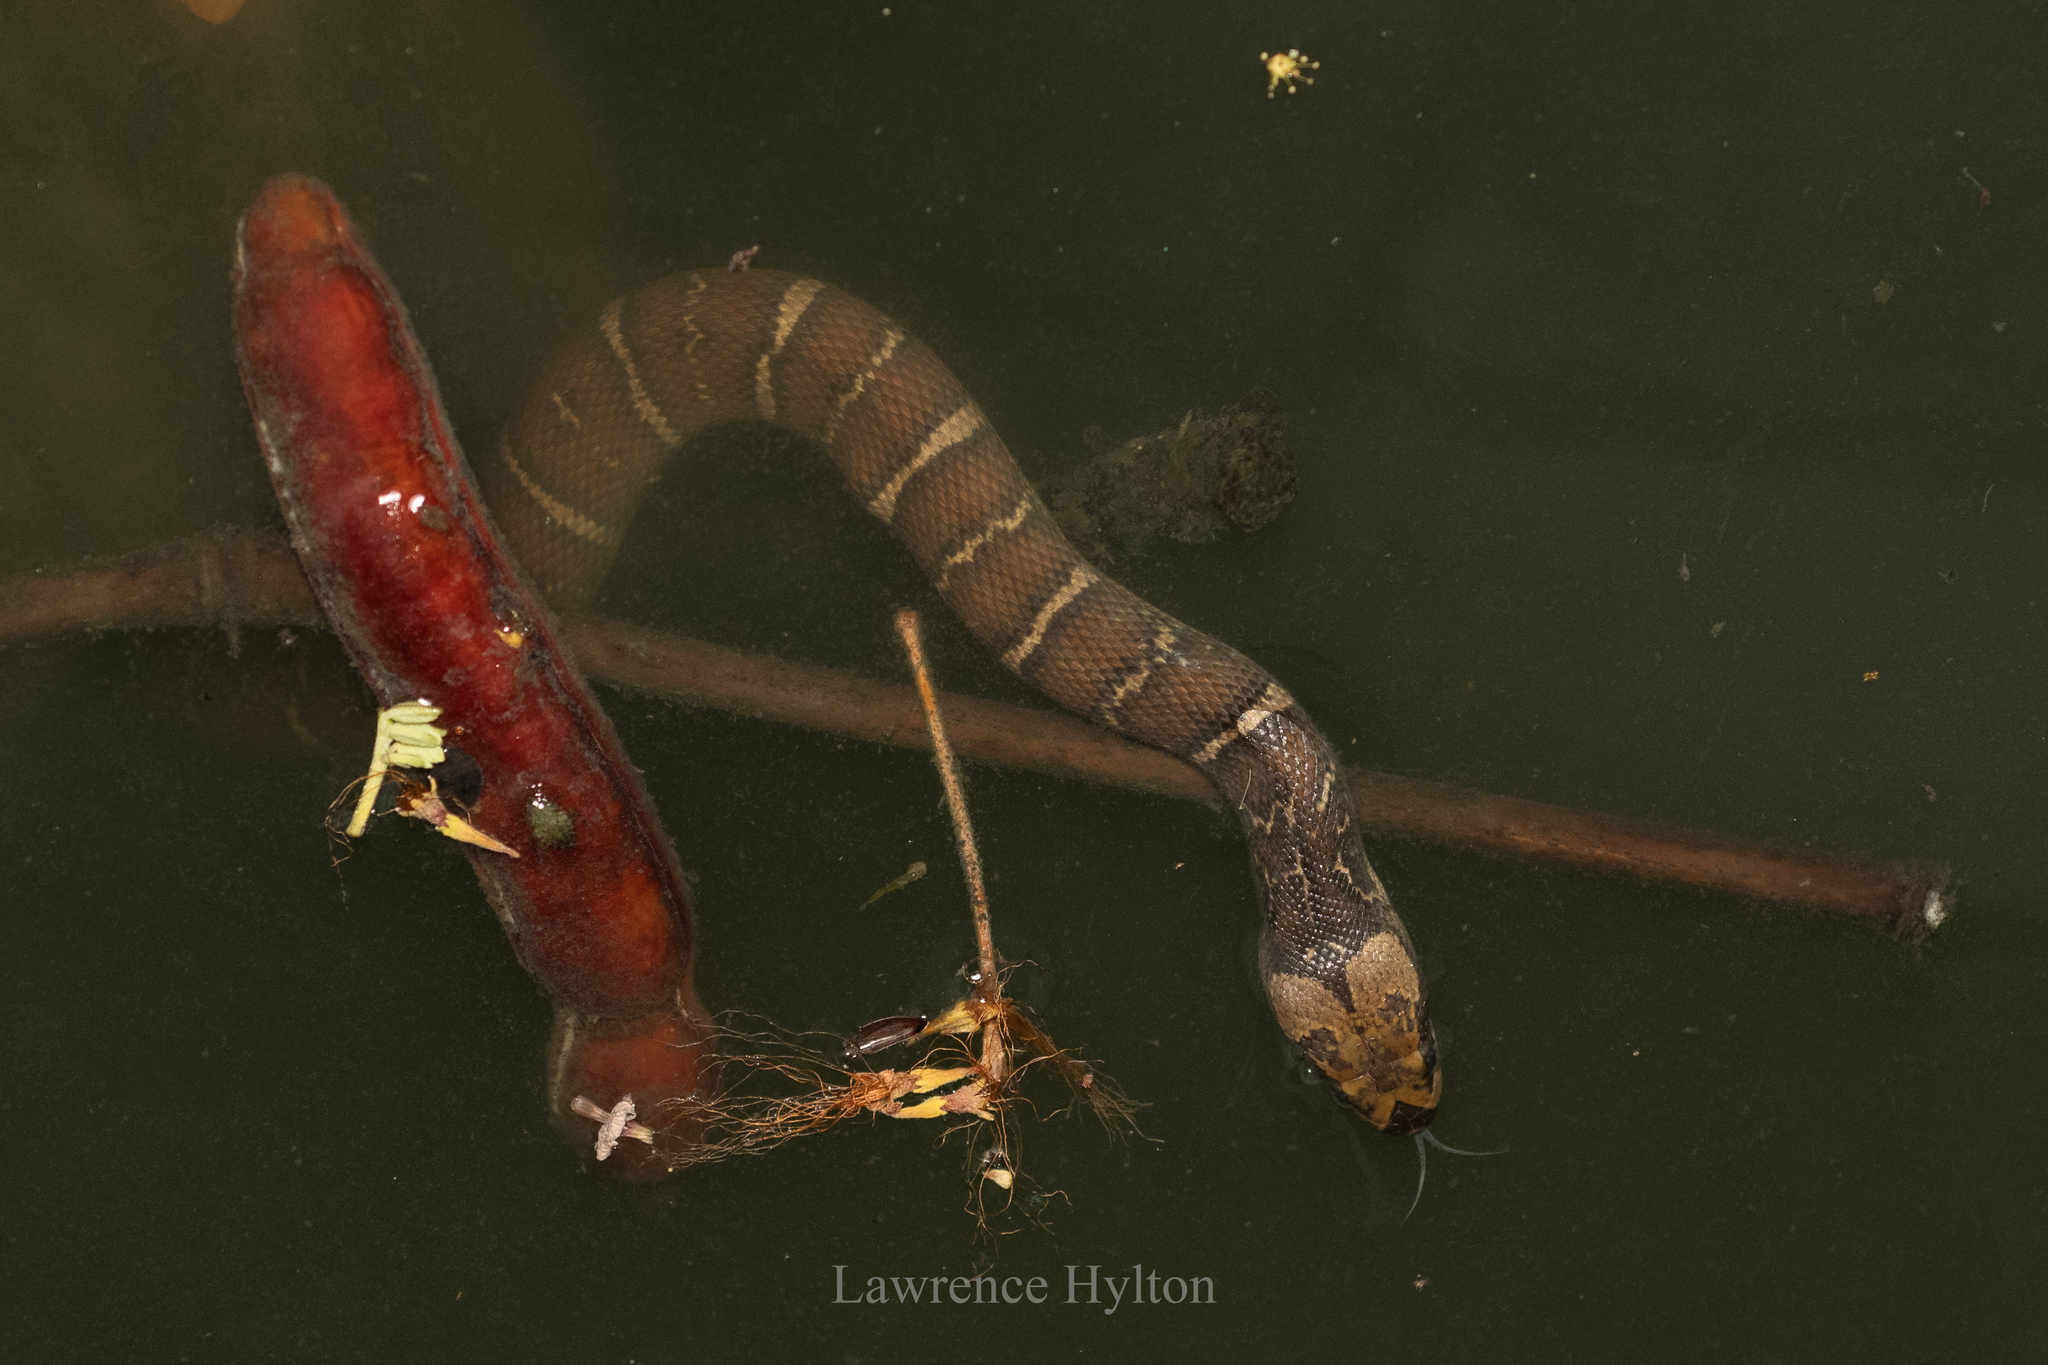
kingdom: Animalia
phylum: Chordata
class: Squamata
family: Homalopsidae
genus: Homalopsis
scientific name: Homalopsis mereljcoxi
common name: Jack’s water snake
